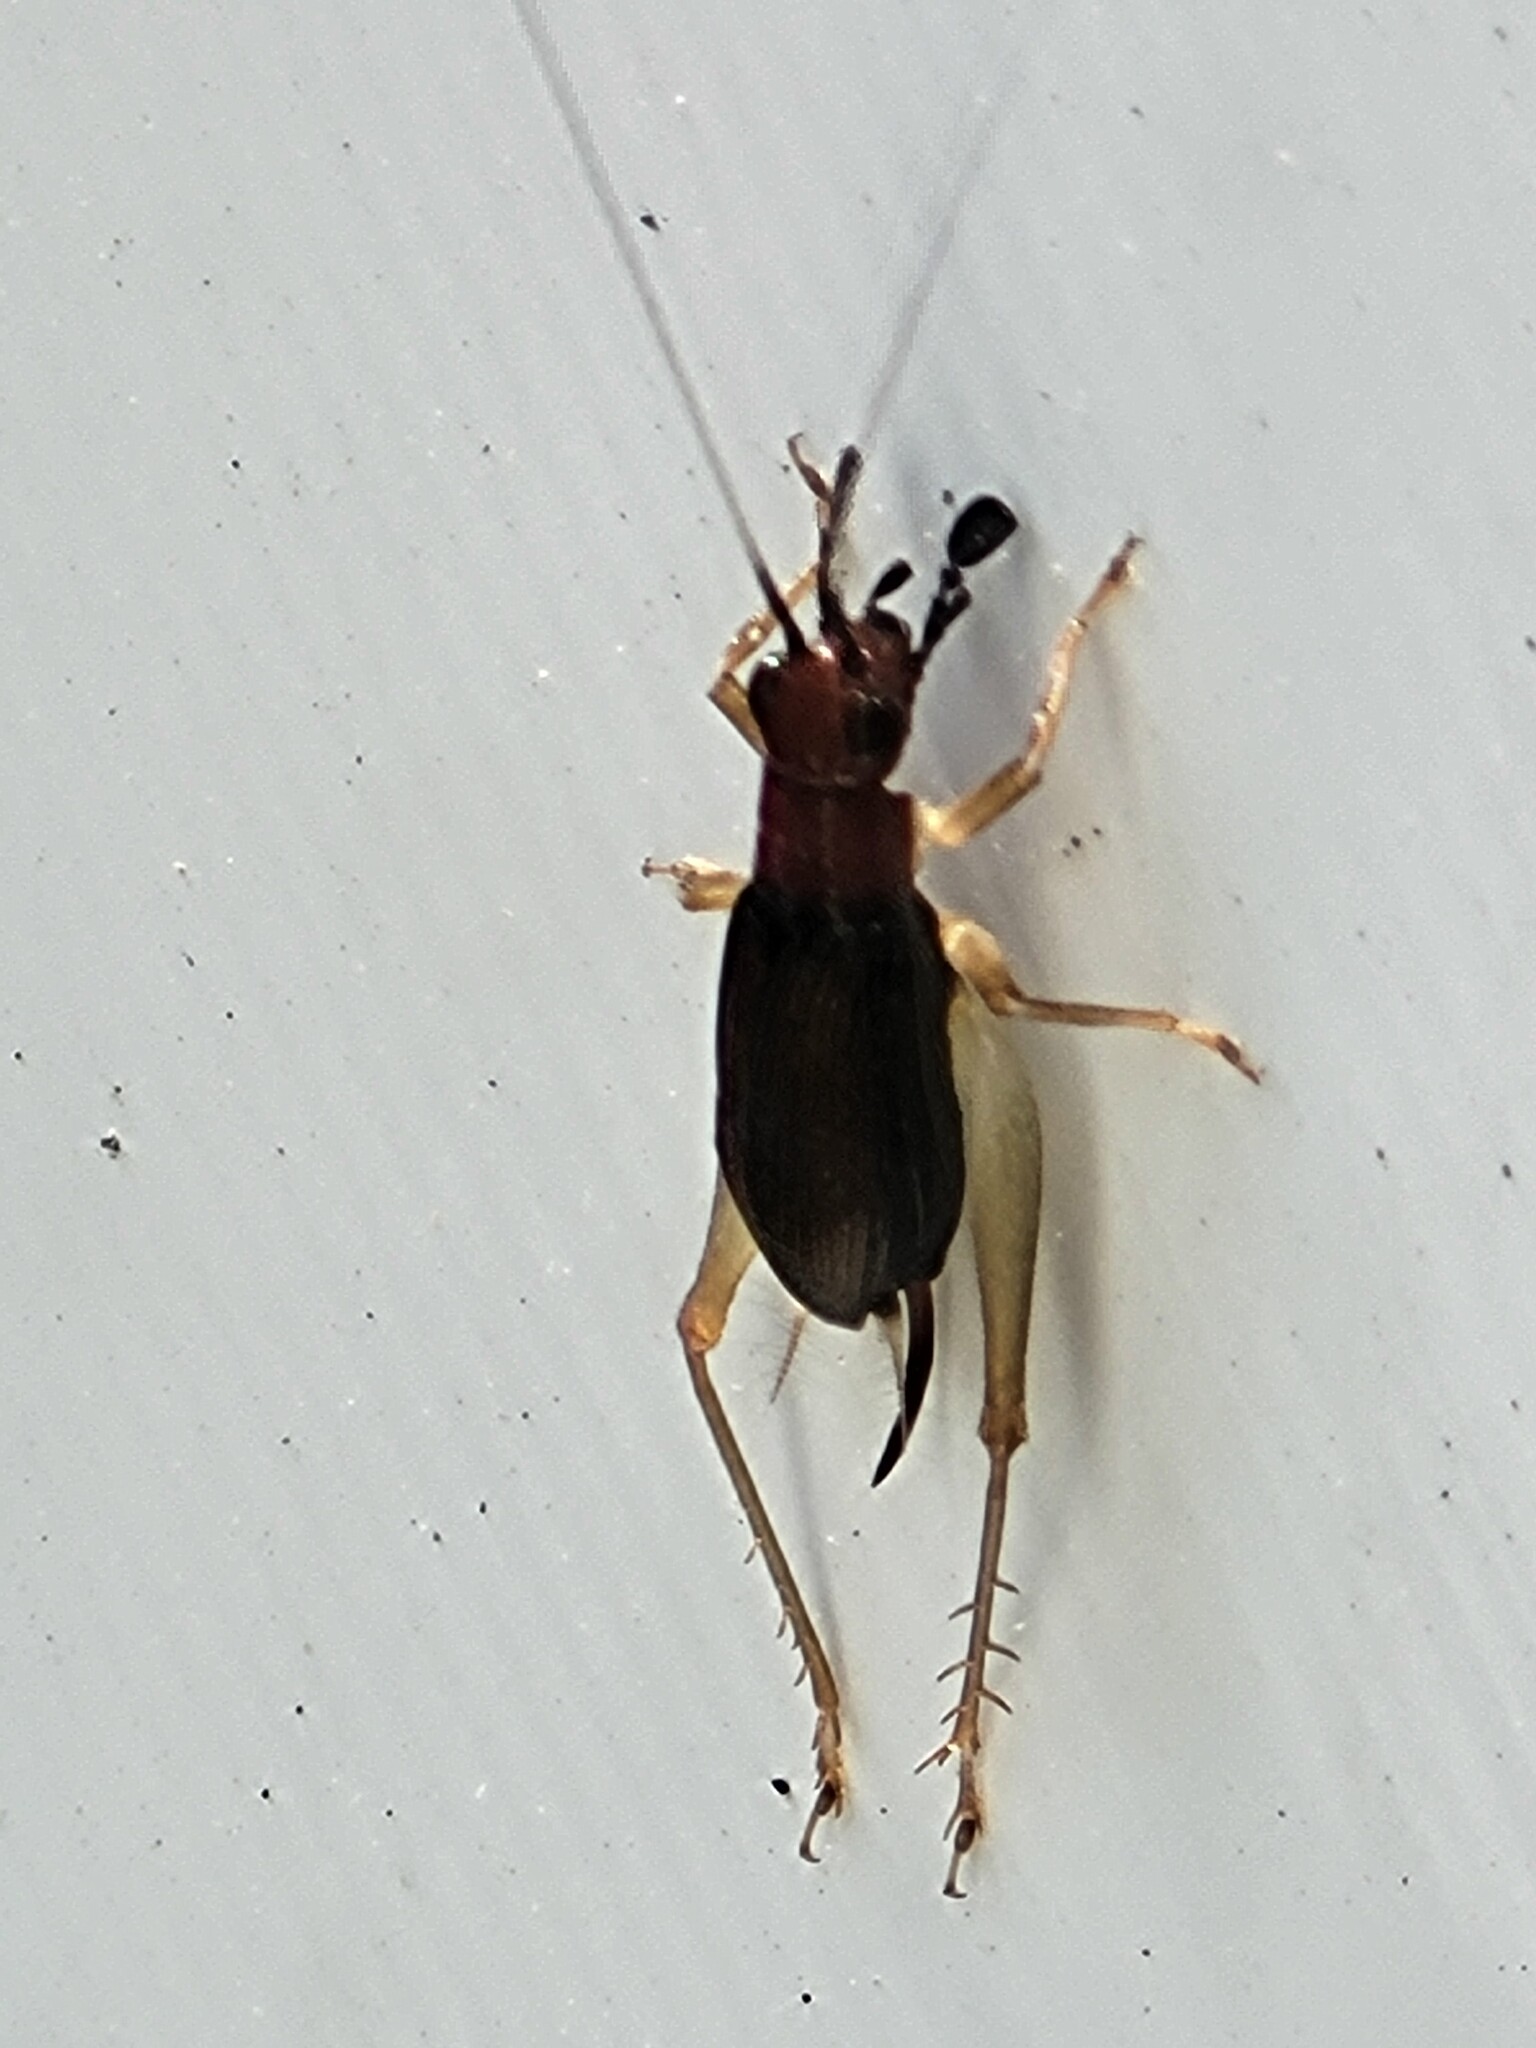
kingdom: Animalia
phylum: Arthropoda
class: Insecta
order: Orthoptera
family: Trigonidiidae
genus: Phyllopalpus
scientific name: Phyllopalpus pulchellus
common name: Handsome trig
